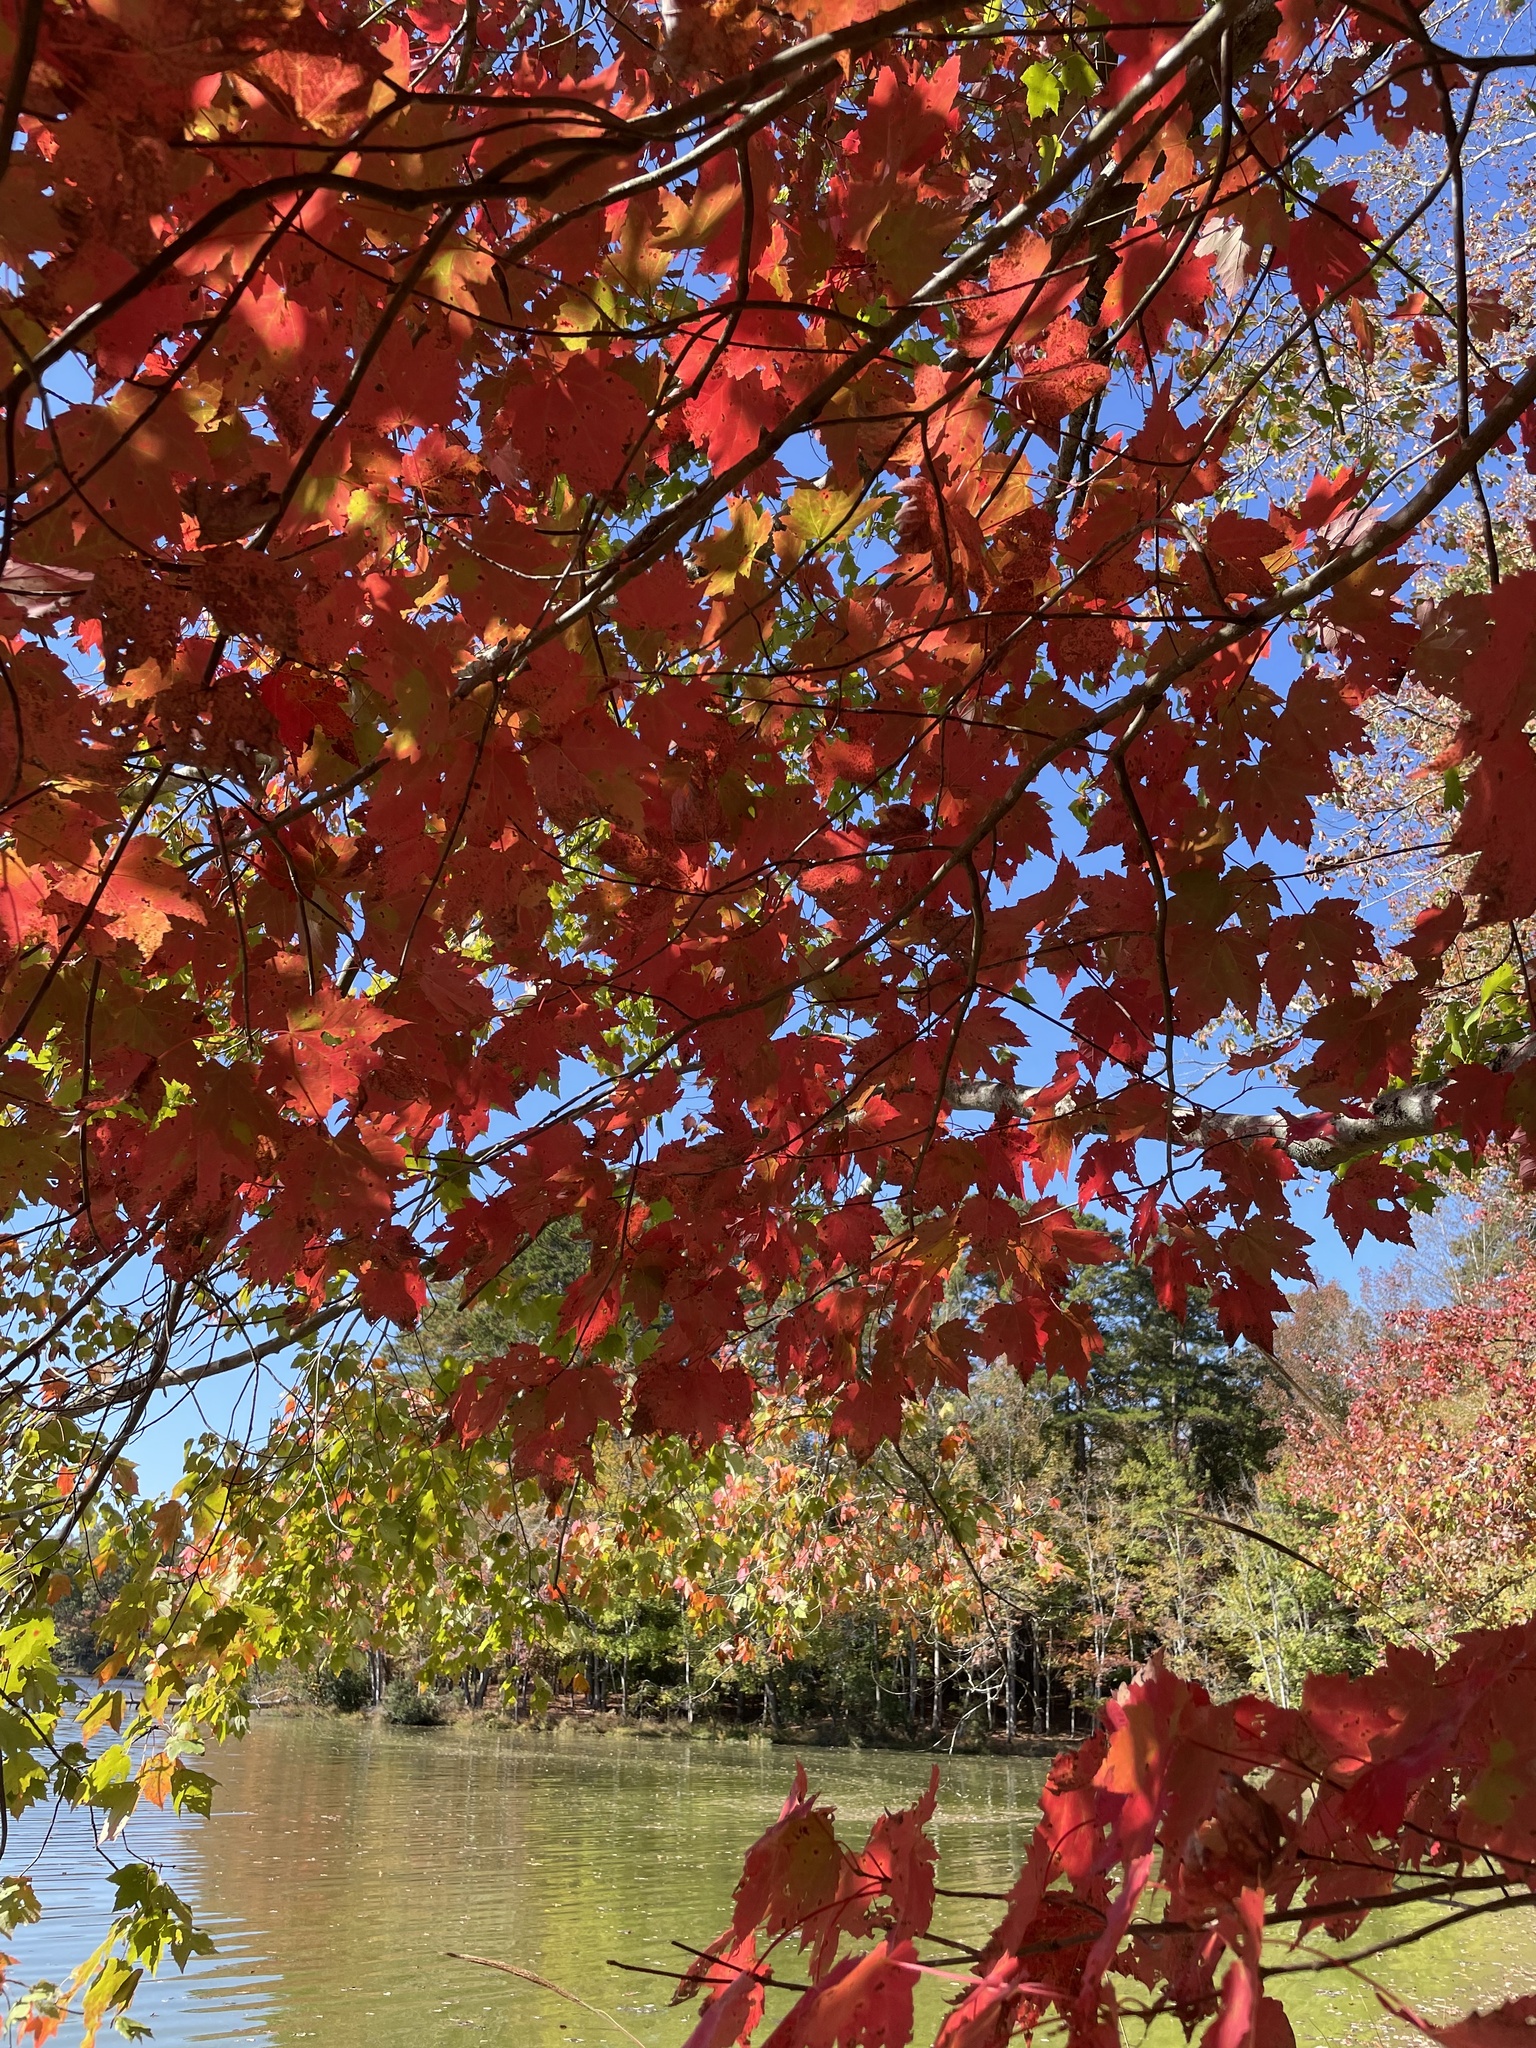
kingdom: Plantae
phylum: Tracheophyta
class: Magnoliopsida
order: Sapindales
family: Sapindaceae
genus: Acer
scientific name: Acer rubrum
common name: Red maple
